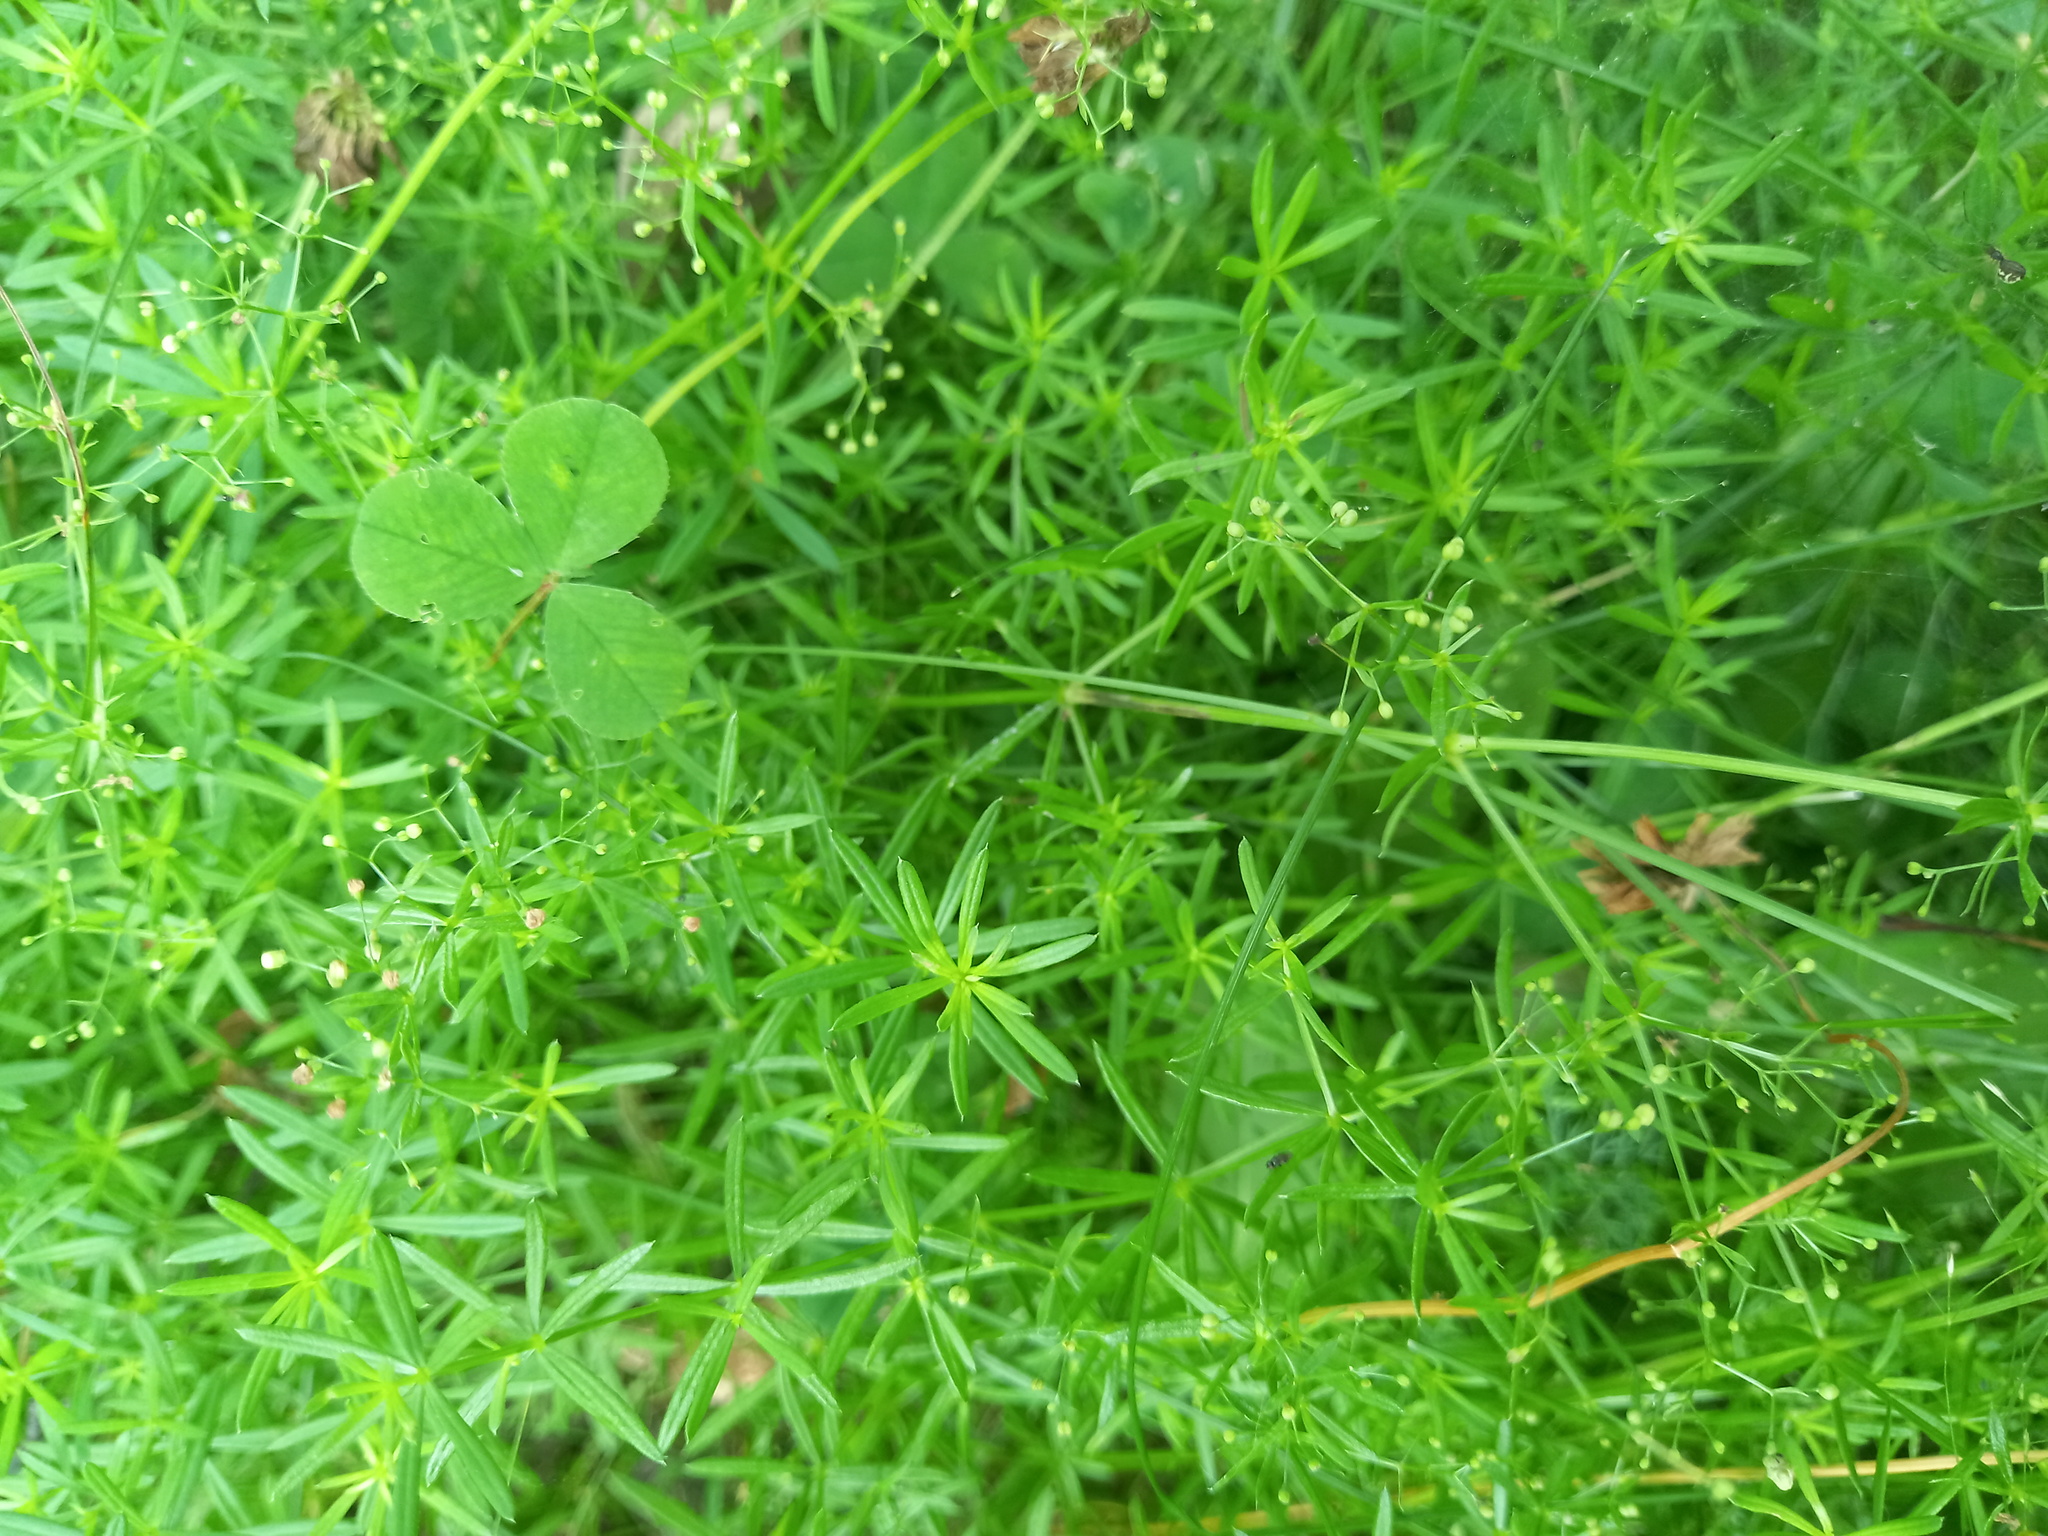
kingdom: Plantae
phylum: Tracheophyta
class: Magnoliopsida
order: Gentianales
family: Rubiaceae
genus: Galium
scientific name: Galium mollugo
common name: Hedge bedstraw
